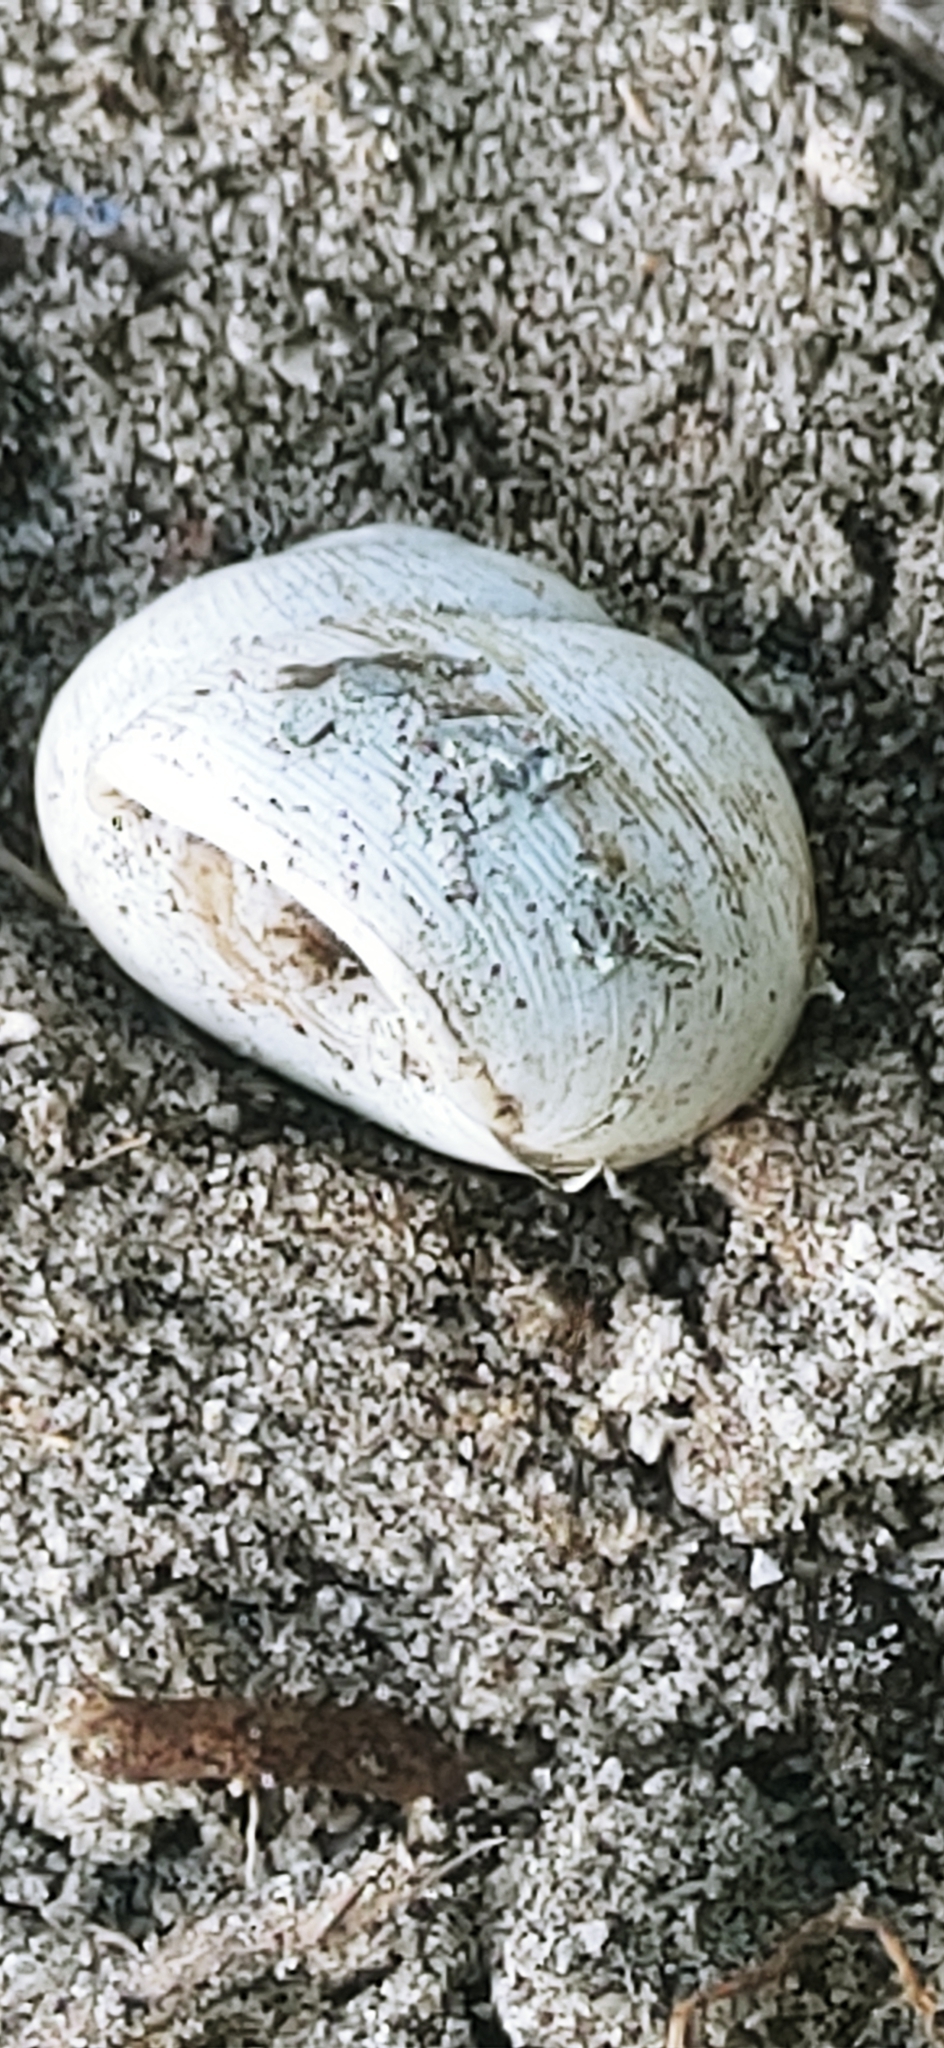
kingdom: Animalia
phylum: Mollusca
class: Gastropoda
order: Stylommatophora
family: Zachrysiidae
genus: Zachrysia
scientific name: Zachrysia provisoria
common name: Garden zachrysia
